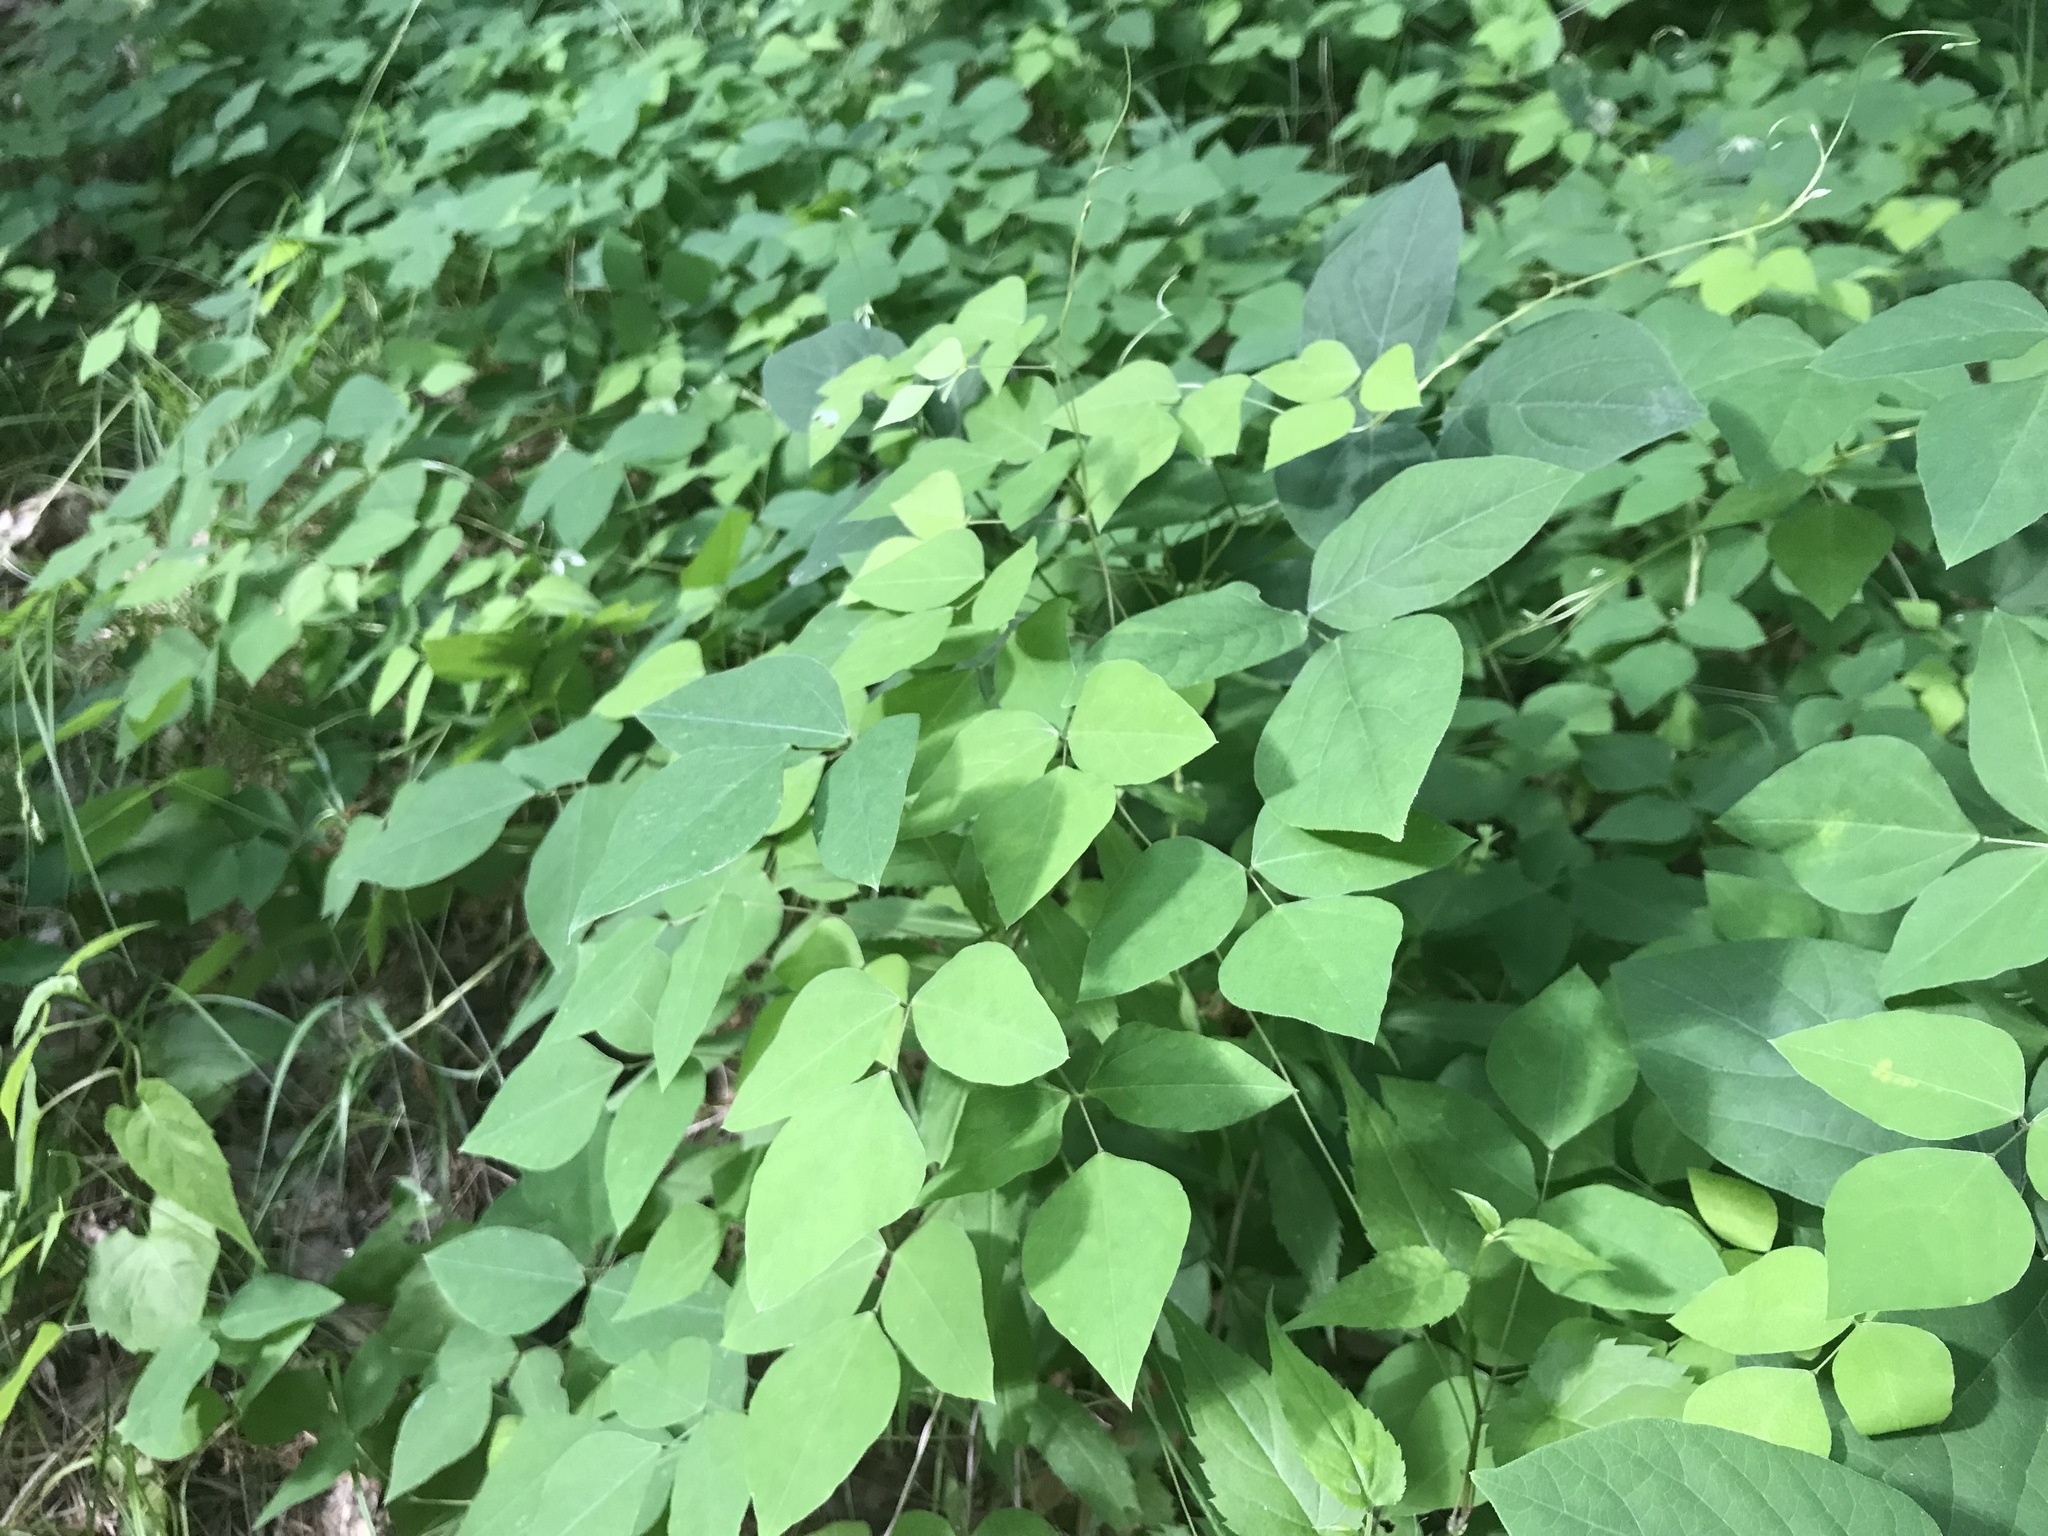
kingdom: Plantae
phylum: Tracheophyta
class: Magnoliopsida
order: Fabales
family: Fabaceae
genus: Amphicarpaea
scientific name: Amphicarpaea bracteata
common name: American hog peanut
